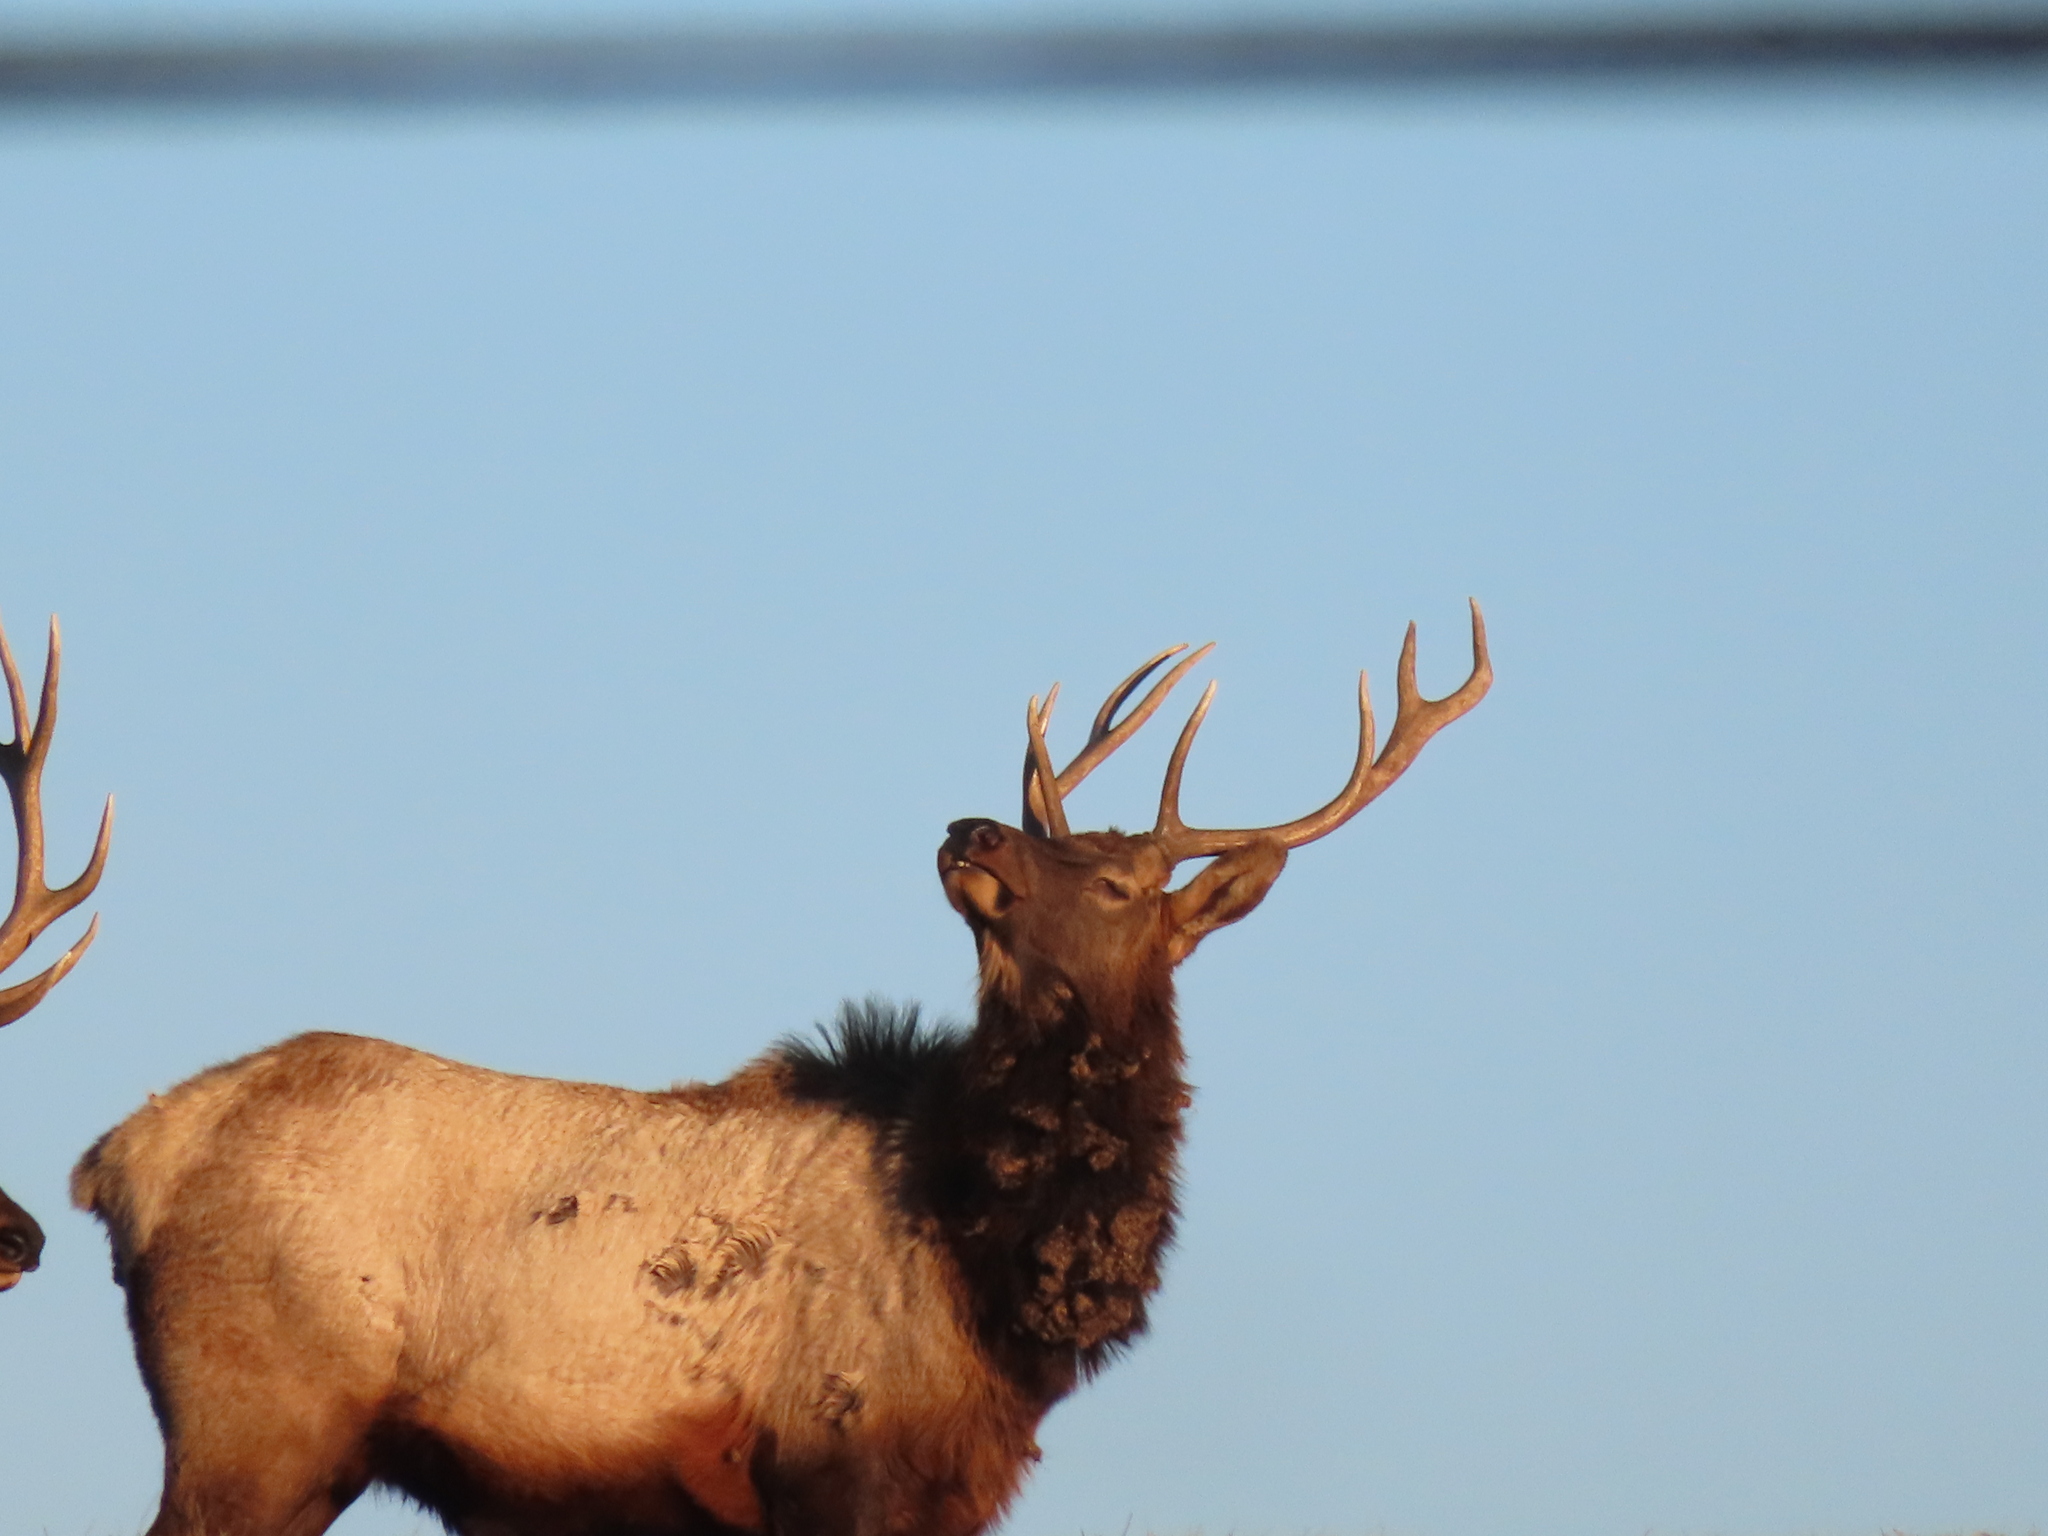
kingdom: Animalia
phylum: Chordata
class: Mammalia
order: Artiodactyla
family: Cervidae
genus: Cervus
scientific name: Cervus elaphus
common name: Red deer
